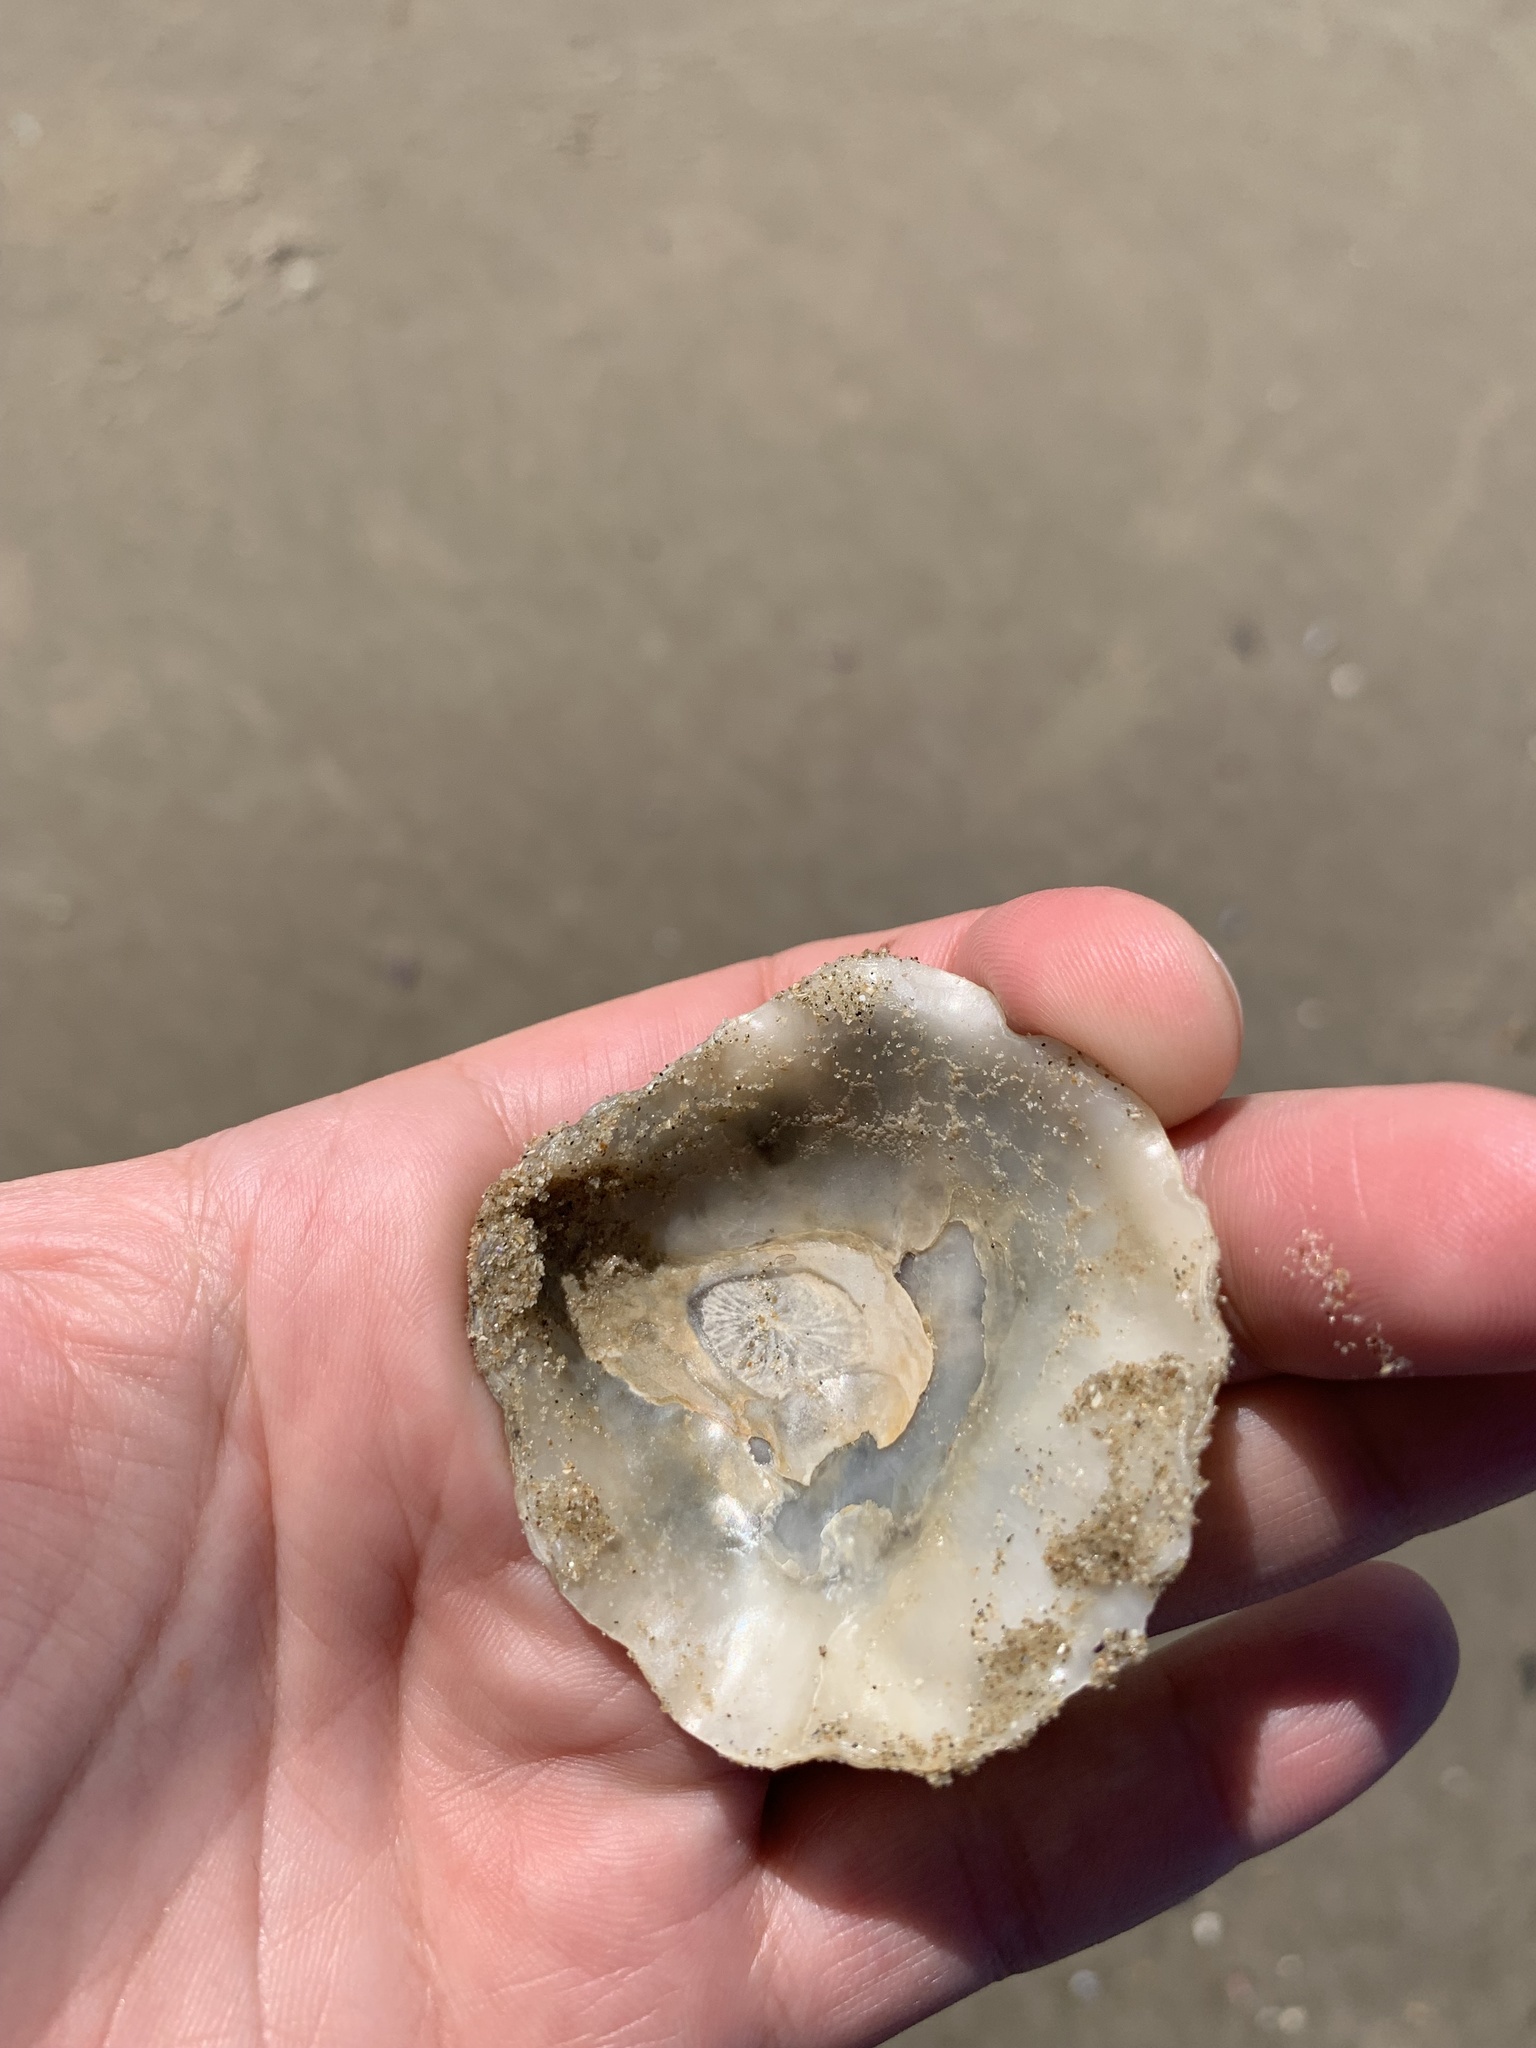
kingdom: Animalia
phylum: Mollusca
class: Bivalvia
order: Pectinida
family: Anomiidae
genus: Pododesmus
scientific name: Pododesmus rudis
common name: Atlantic false jingle
